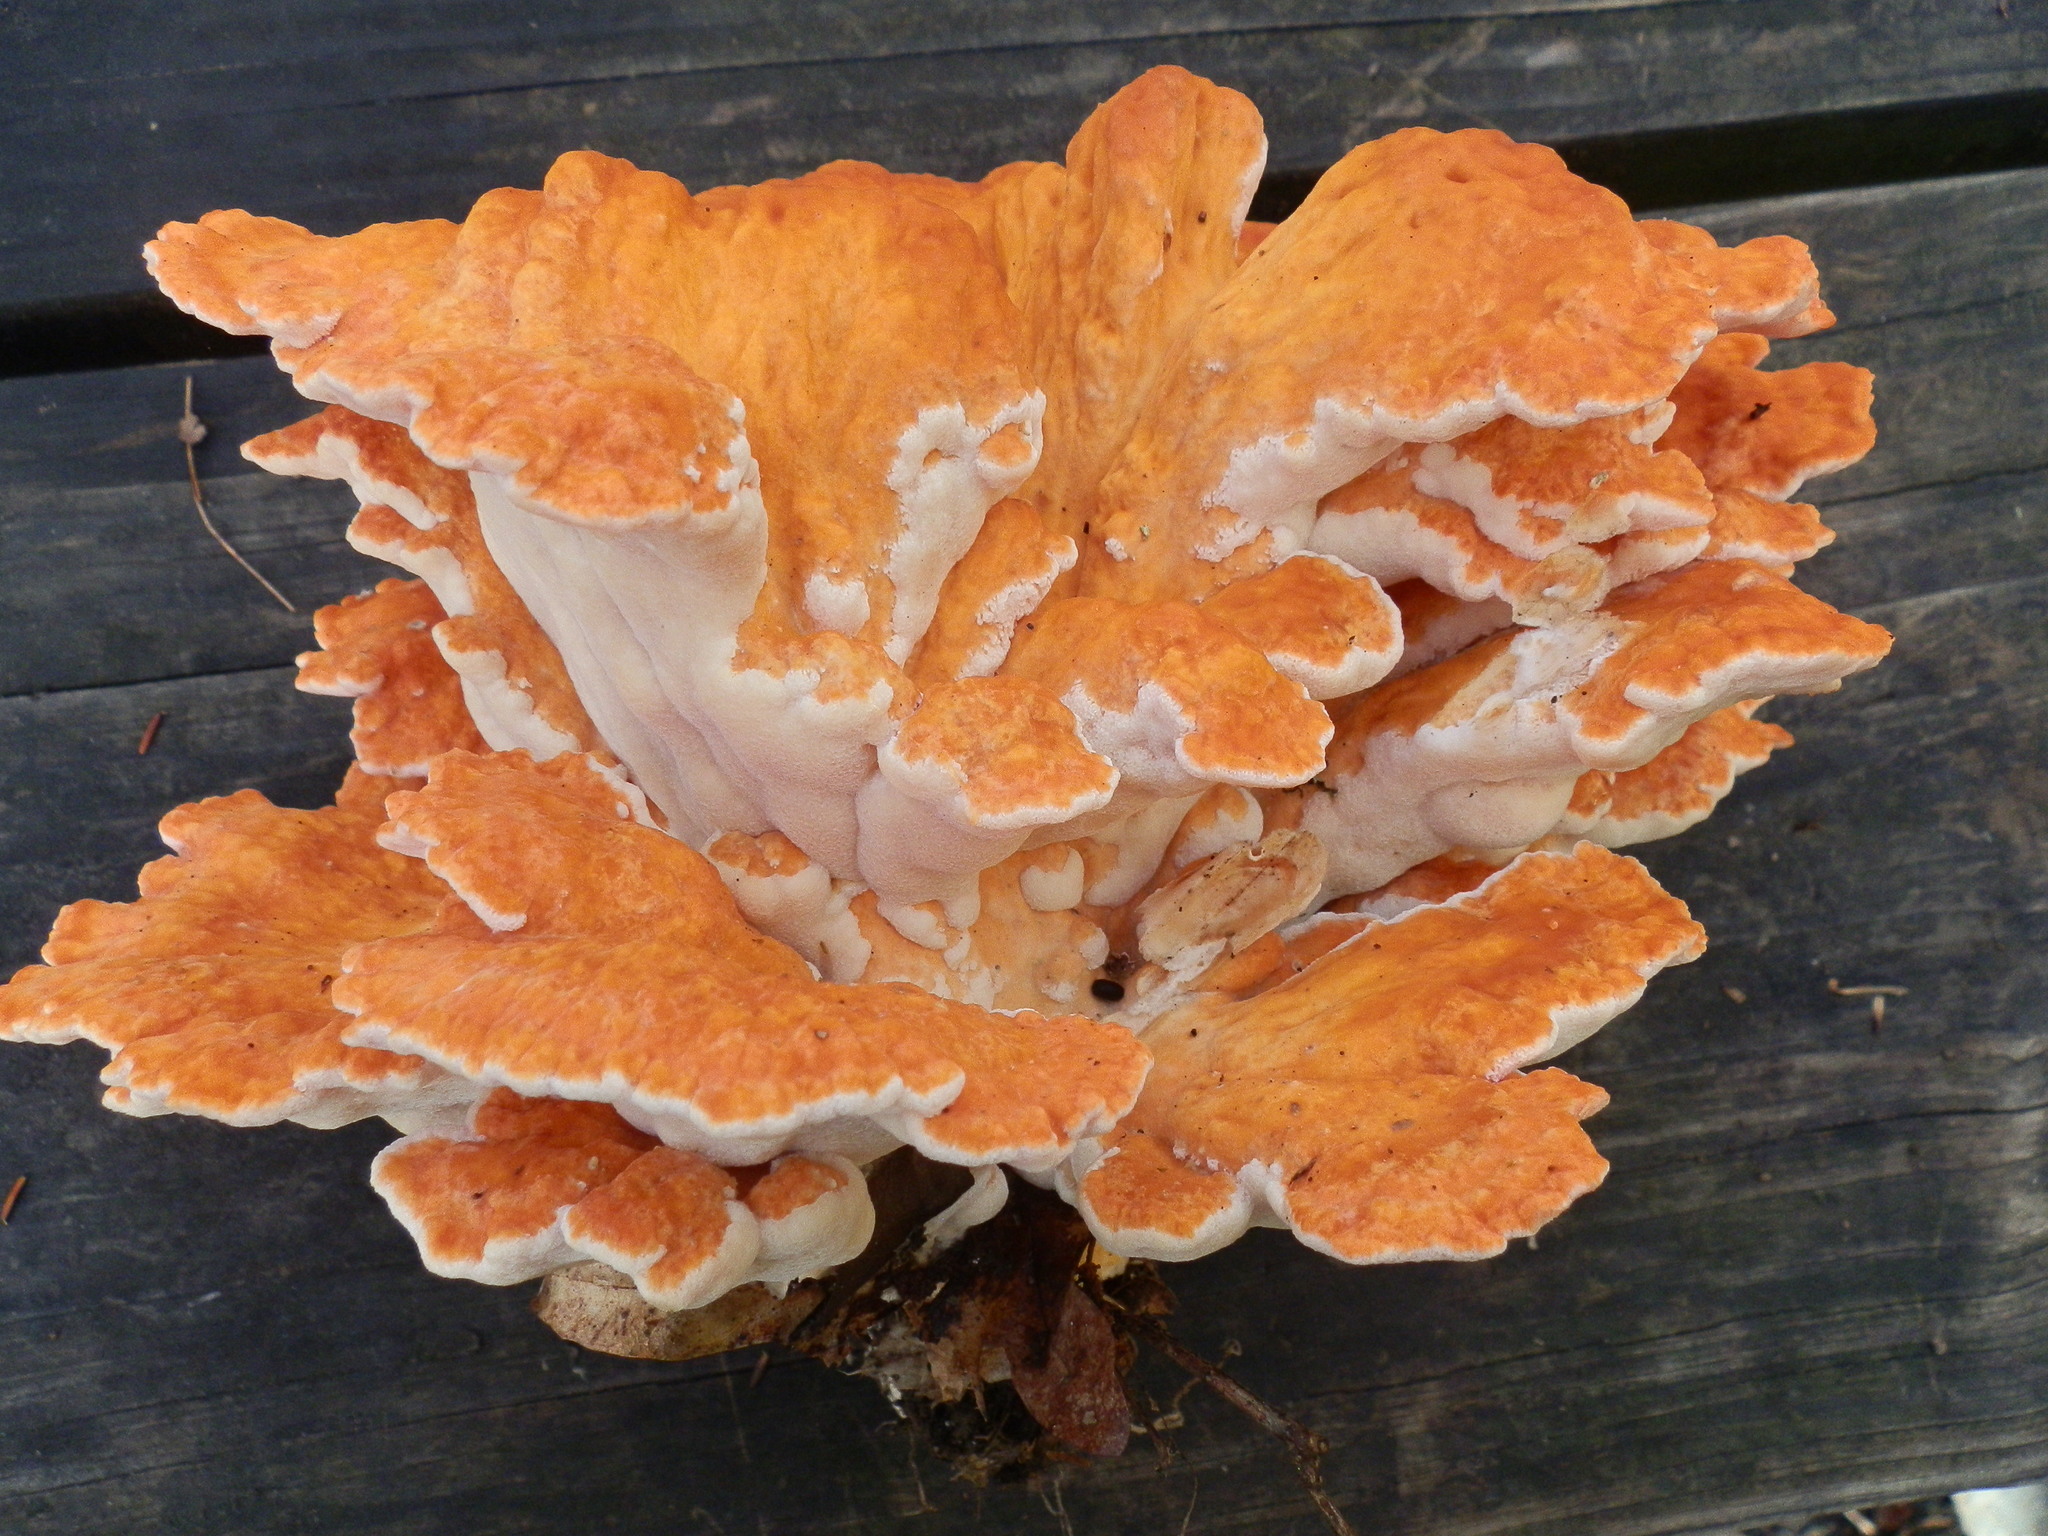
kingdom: Fungi
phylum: Basidiomycota
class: Agaricomycetes
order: Polyporales
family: Laetiporaceae
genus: Laetiporus
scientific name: Laetiporus sulphureus
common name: Chicken of the woods
